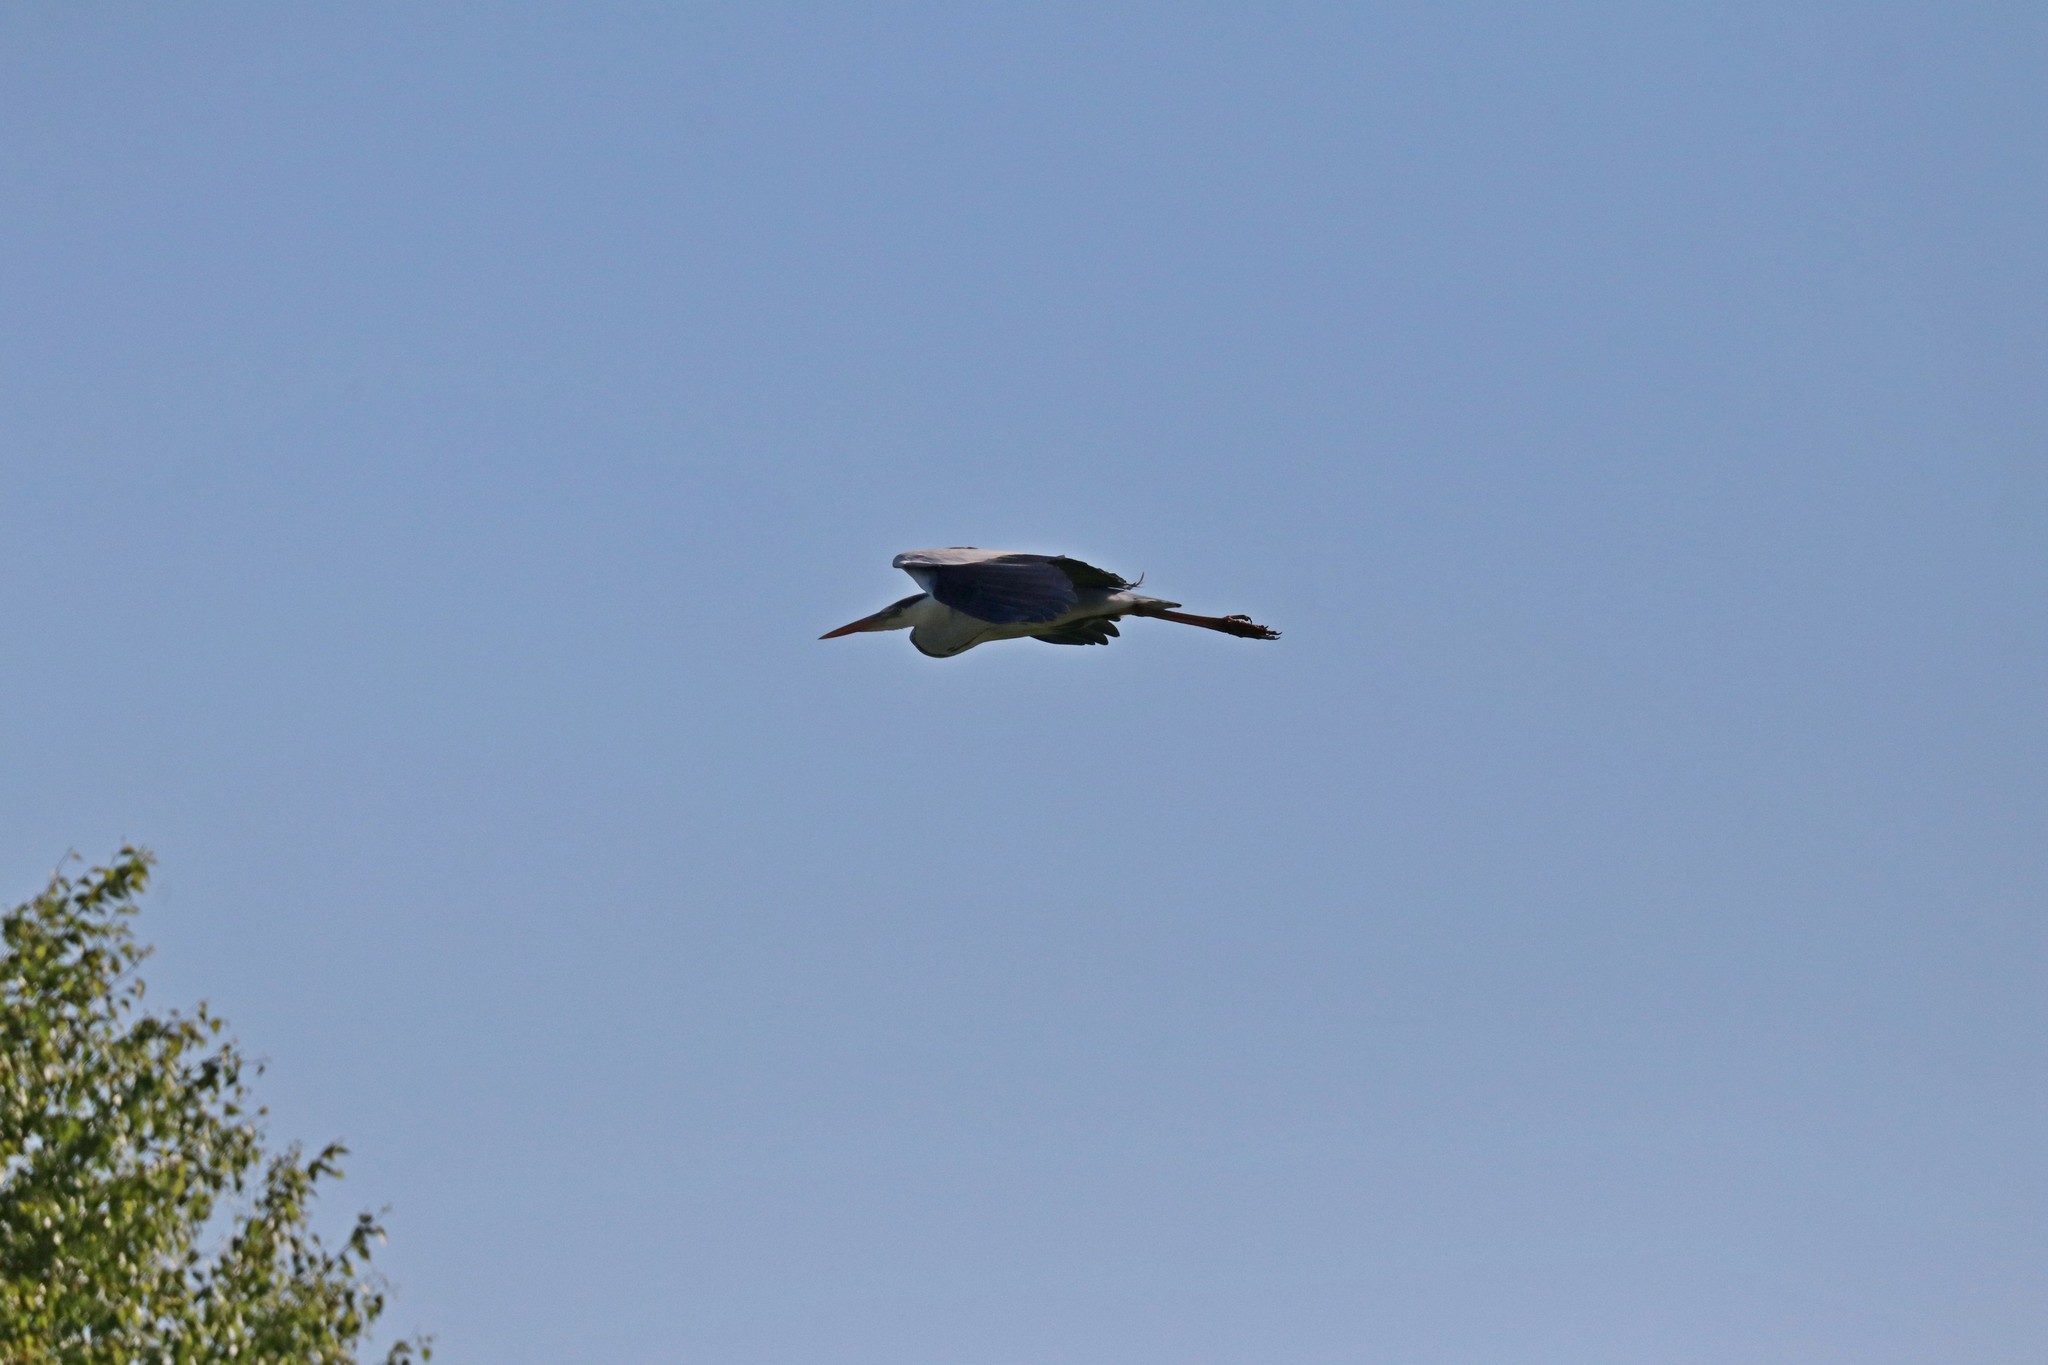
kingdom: Animalia
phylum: Chordata
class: Aves
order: Pelecaniformes
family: Ardeidae
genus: Ardea
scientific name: Ardea cinerea
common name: Grey heron
